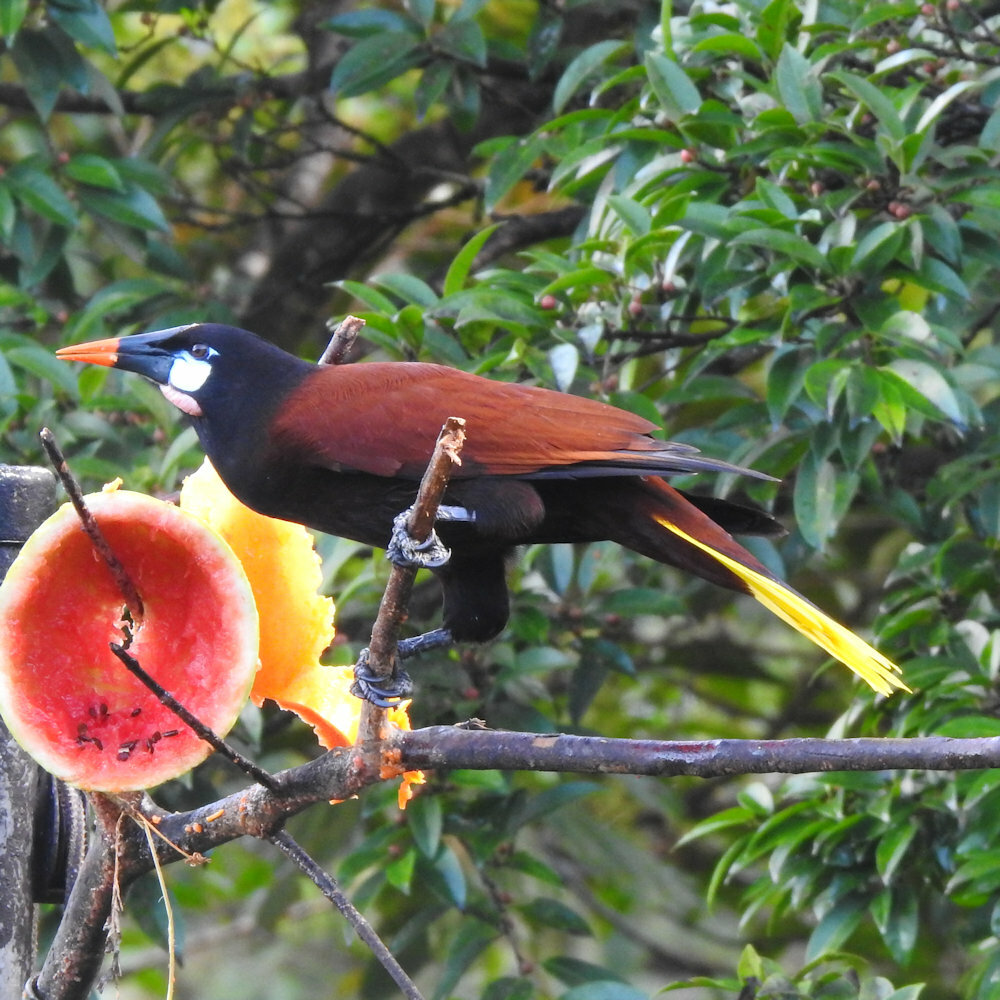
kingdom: Animalia
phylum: Chordata
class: Aves
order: Passeriformes
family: Icteridae
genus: Psarocolius
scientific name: Psarocolius montezuma
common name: Montezuma oropendola
